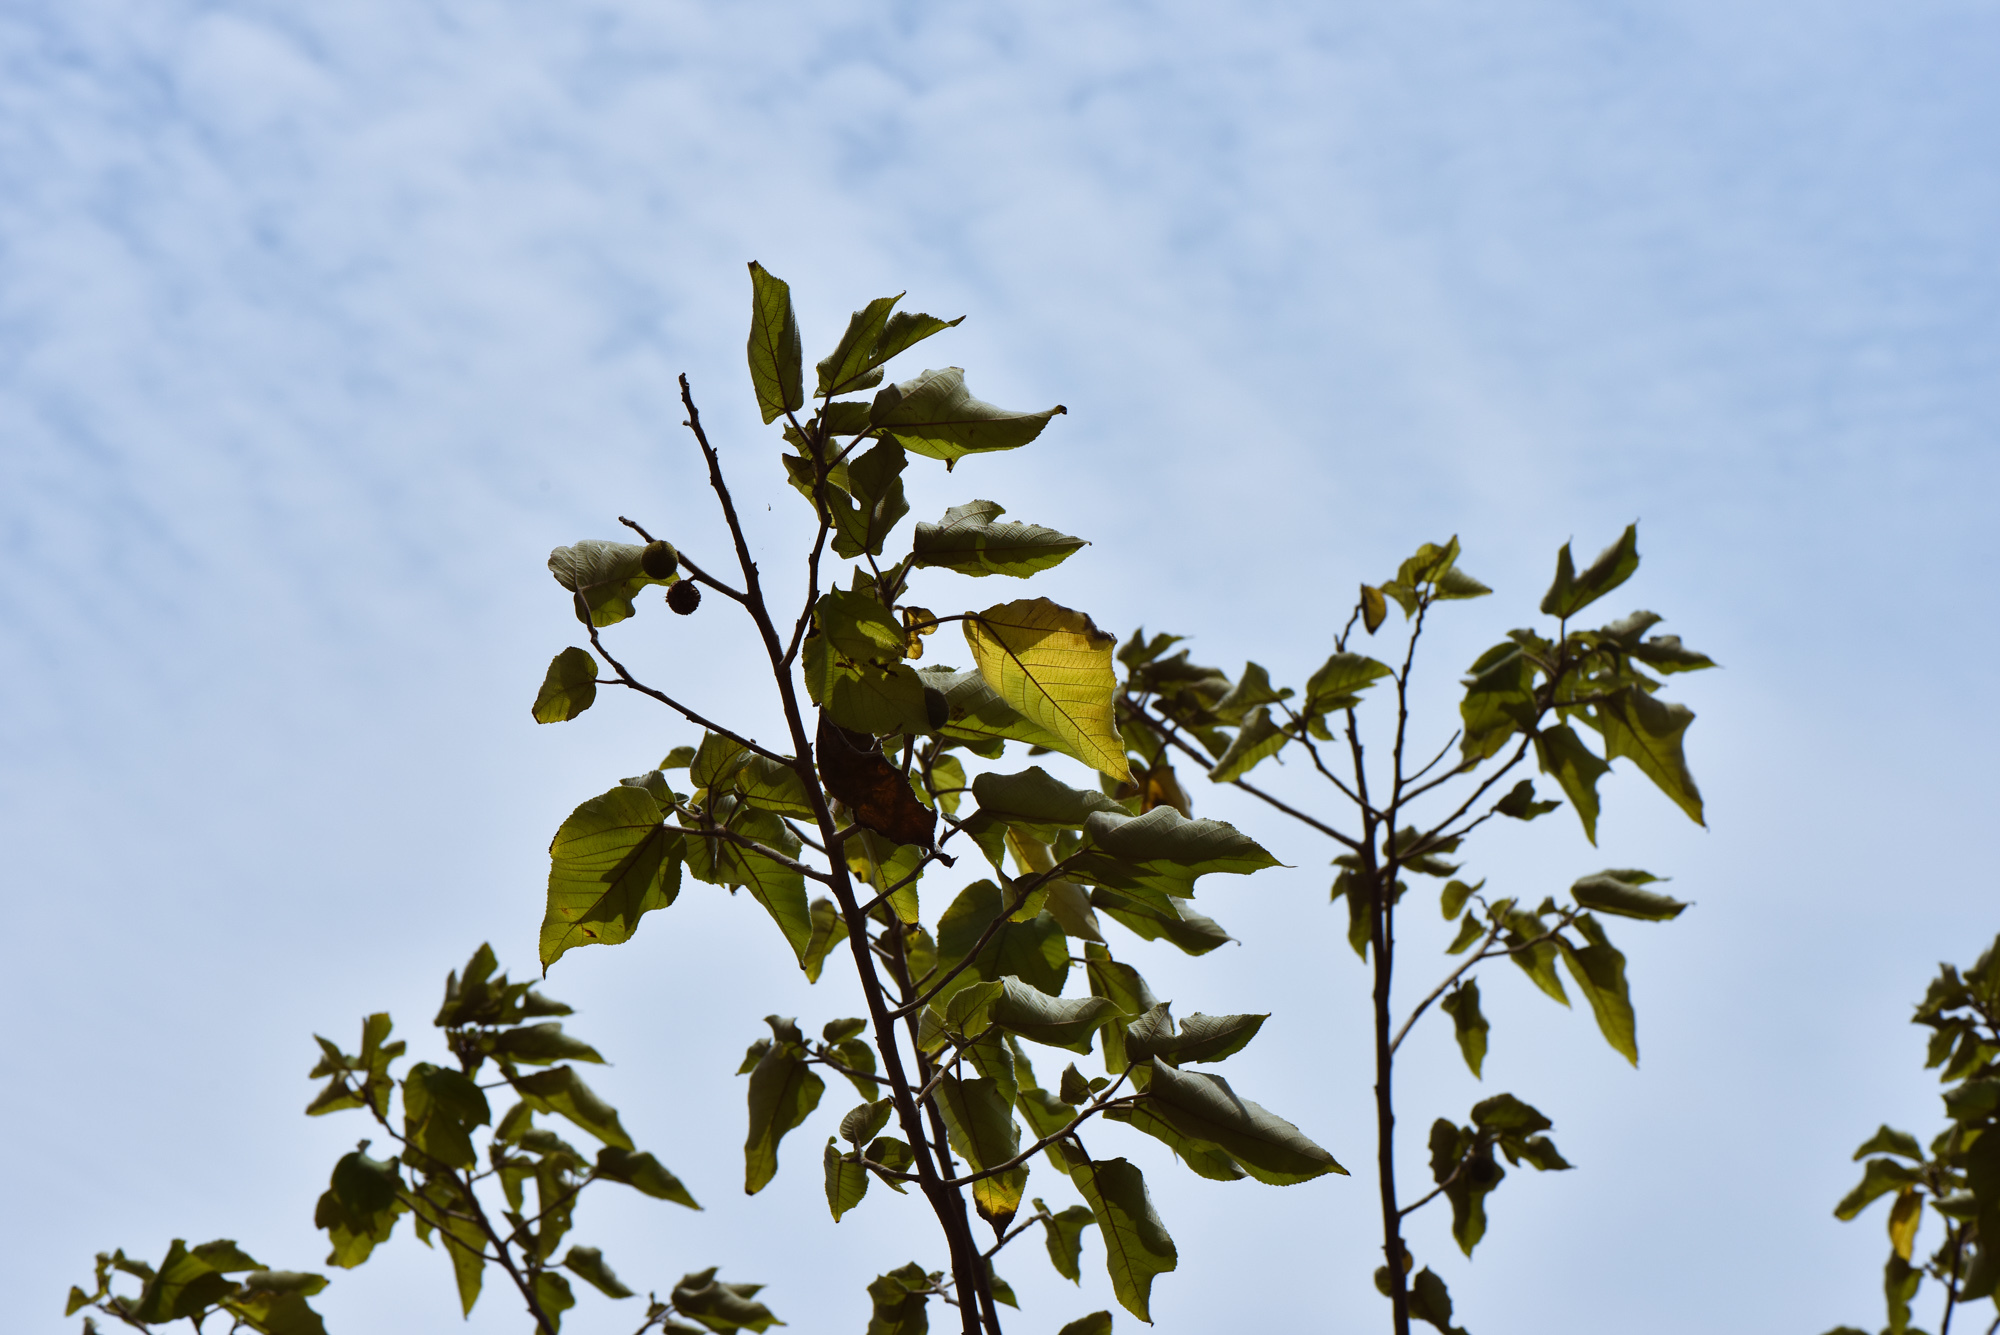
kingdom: Plantae
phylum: Tracheophyta
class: Magnoliopsida
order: Rosales
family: Moraceae
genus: Broussonetia
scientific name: Broussonetia papyrifera
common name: Paper mulberry
